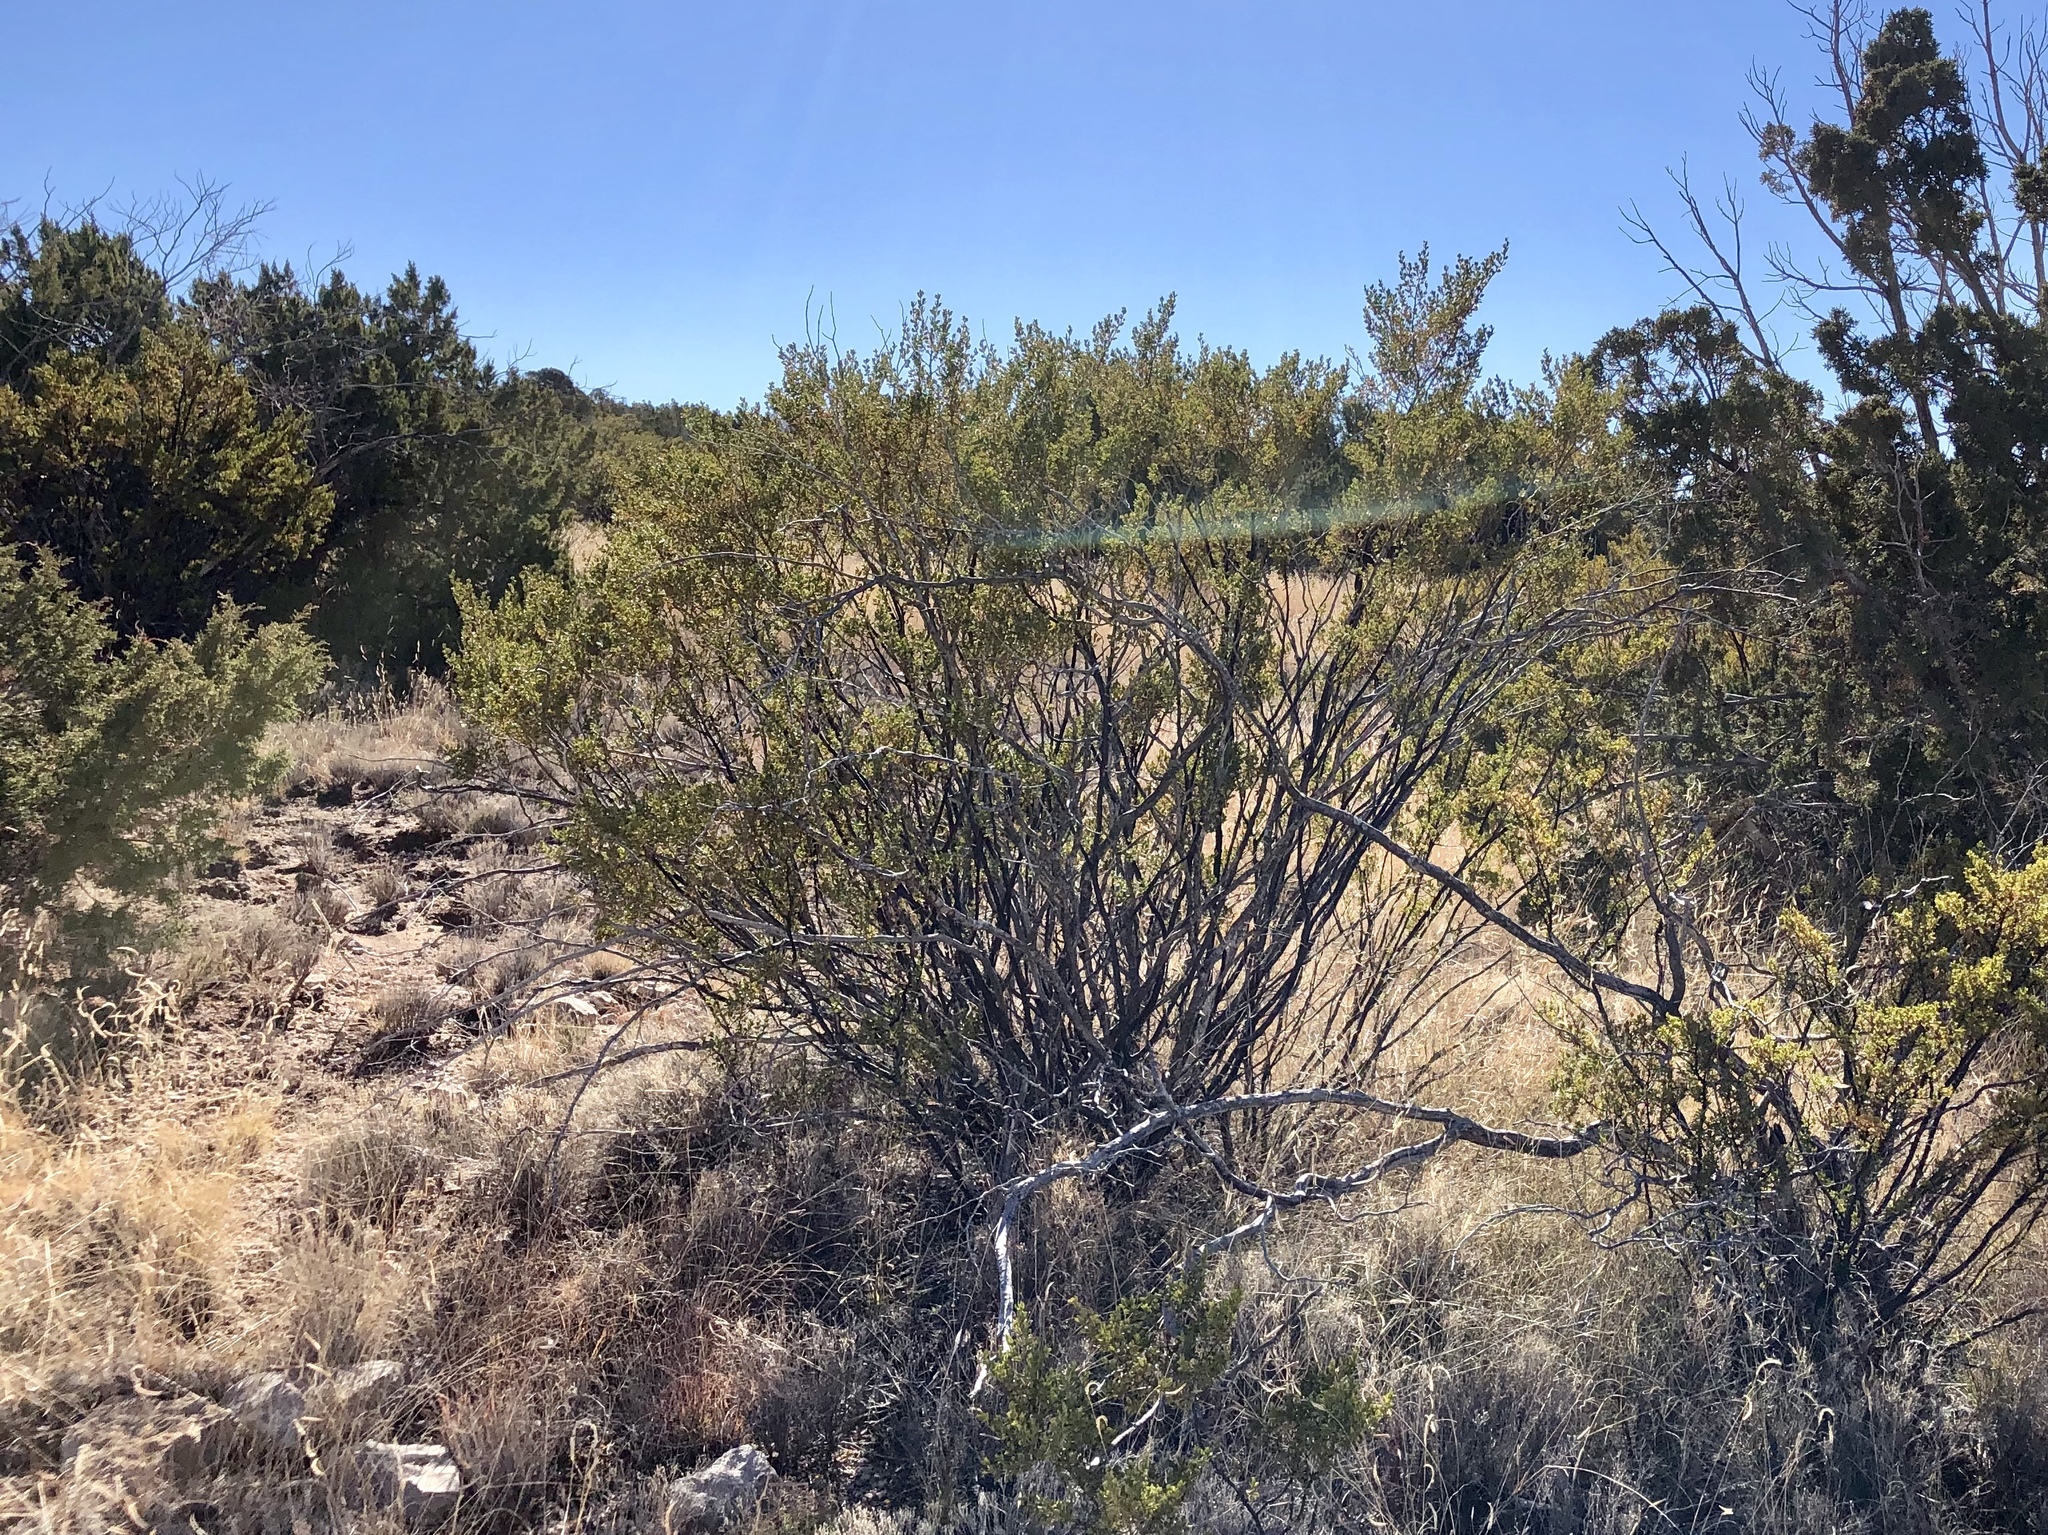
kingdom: Plantae
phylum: Tracheophyta
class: Magnoliopsida
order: Zygophyllales
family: Zygophyllaceae
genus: Larrea
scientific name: Larrea tridentata
